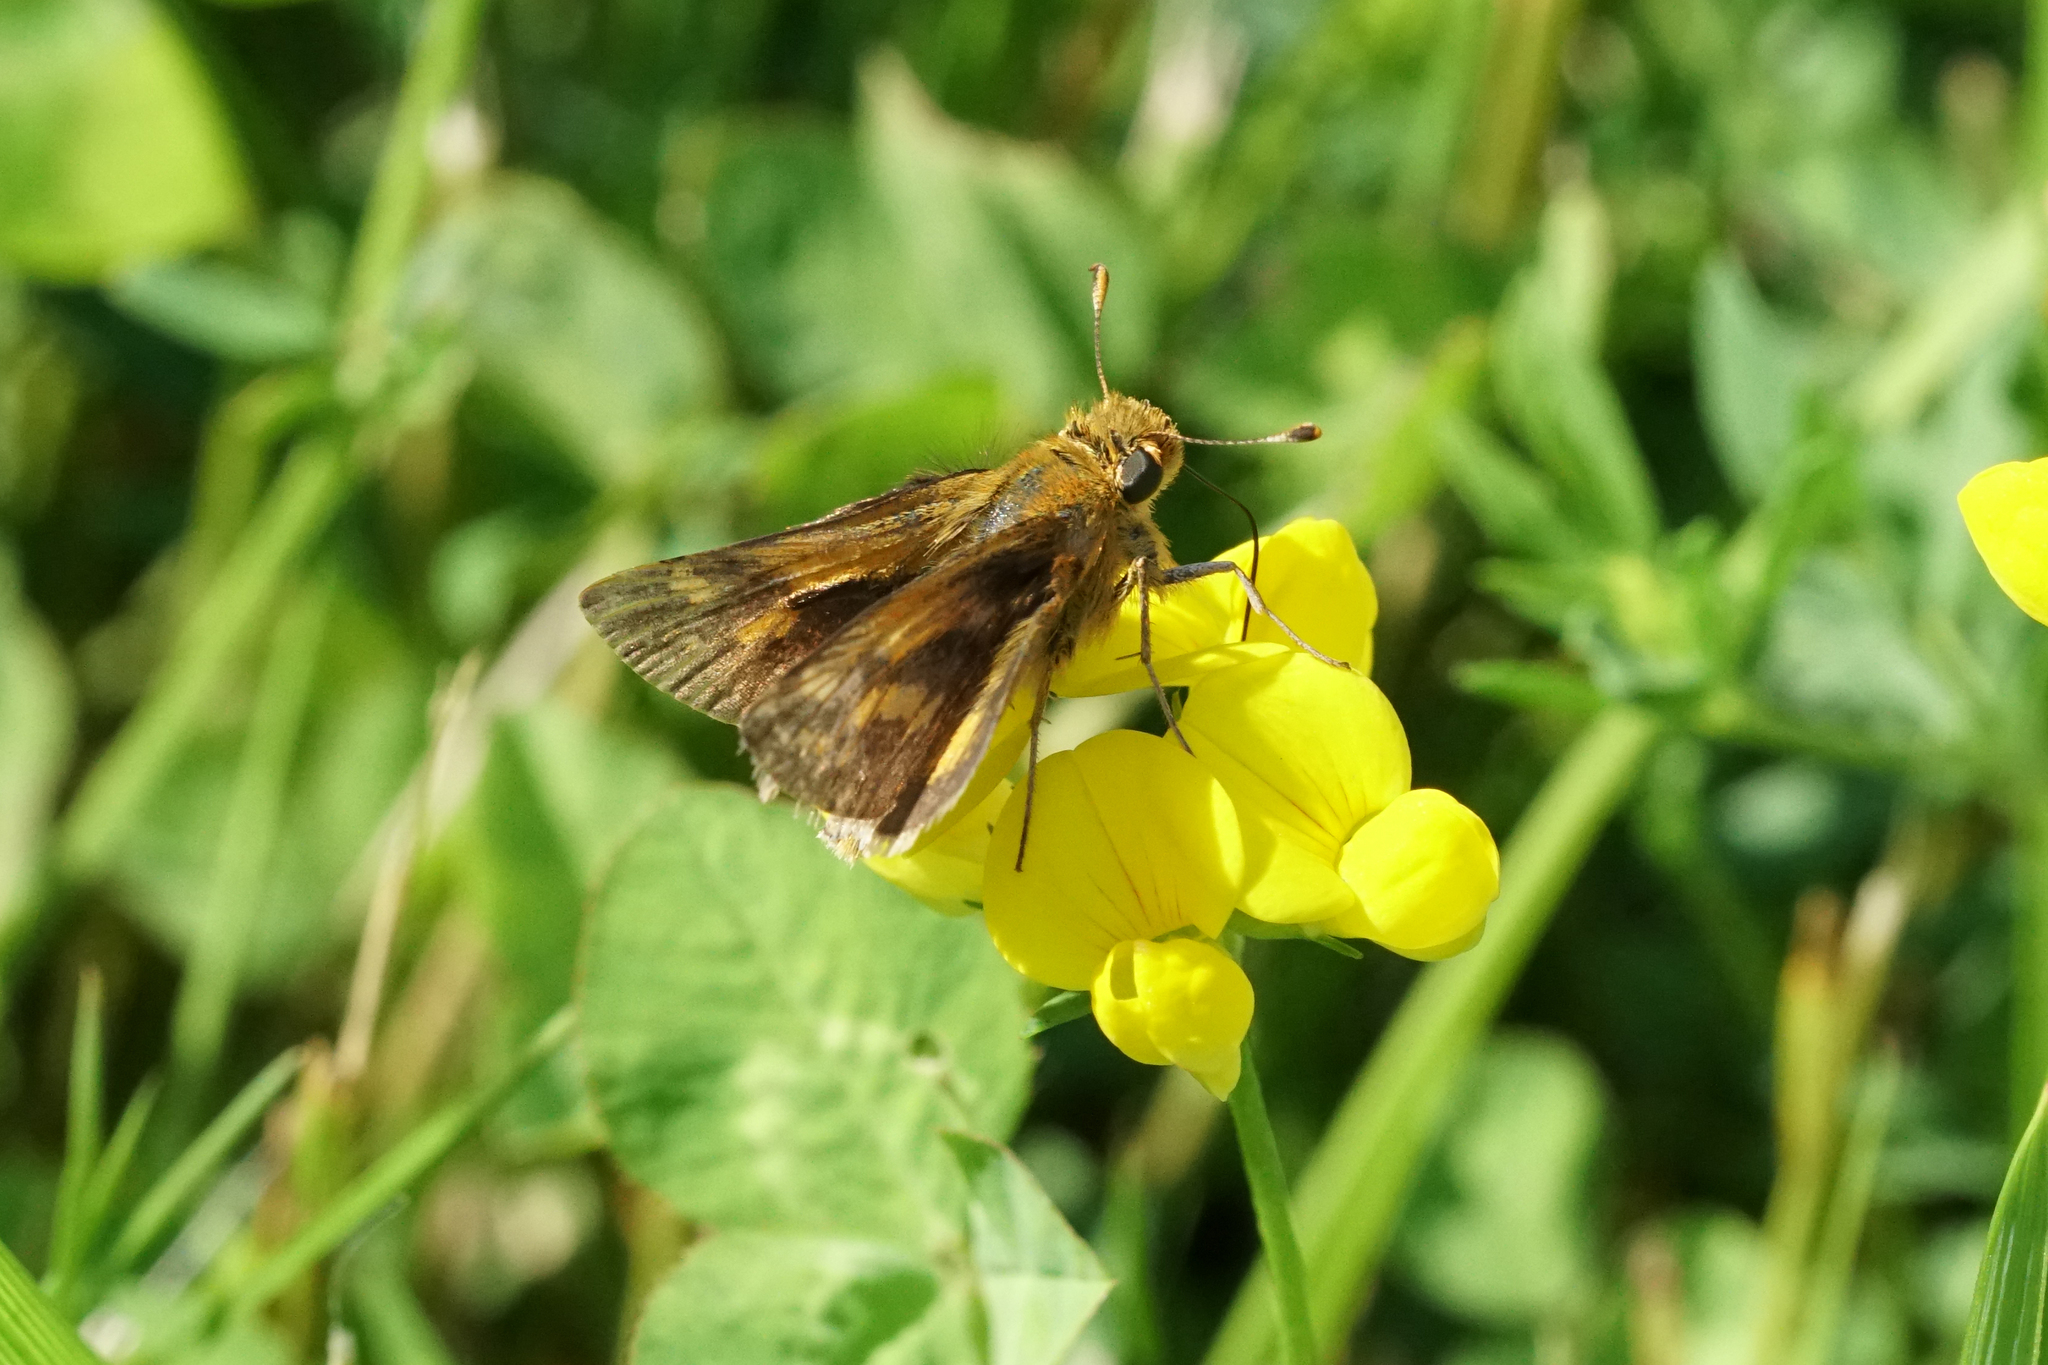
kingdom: Animalia
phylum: Arthropoda
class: Insecta
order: Lepidoptera
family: Hesperiidae
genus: Polites
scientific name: Polites coras
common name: Peck's skipper
